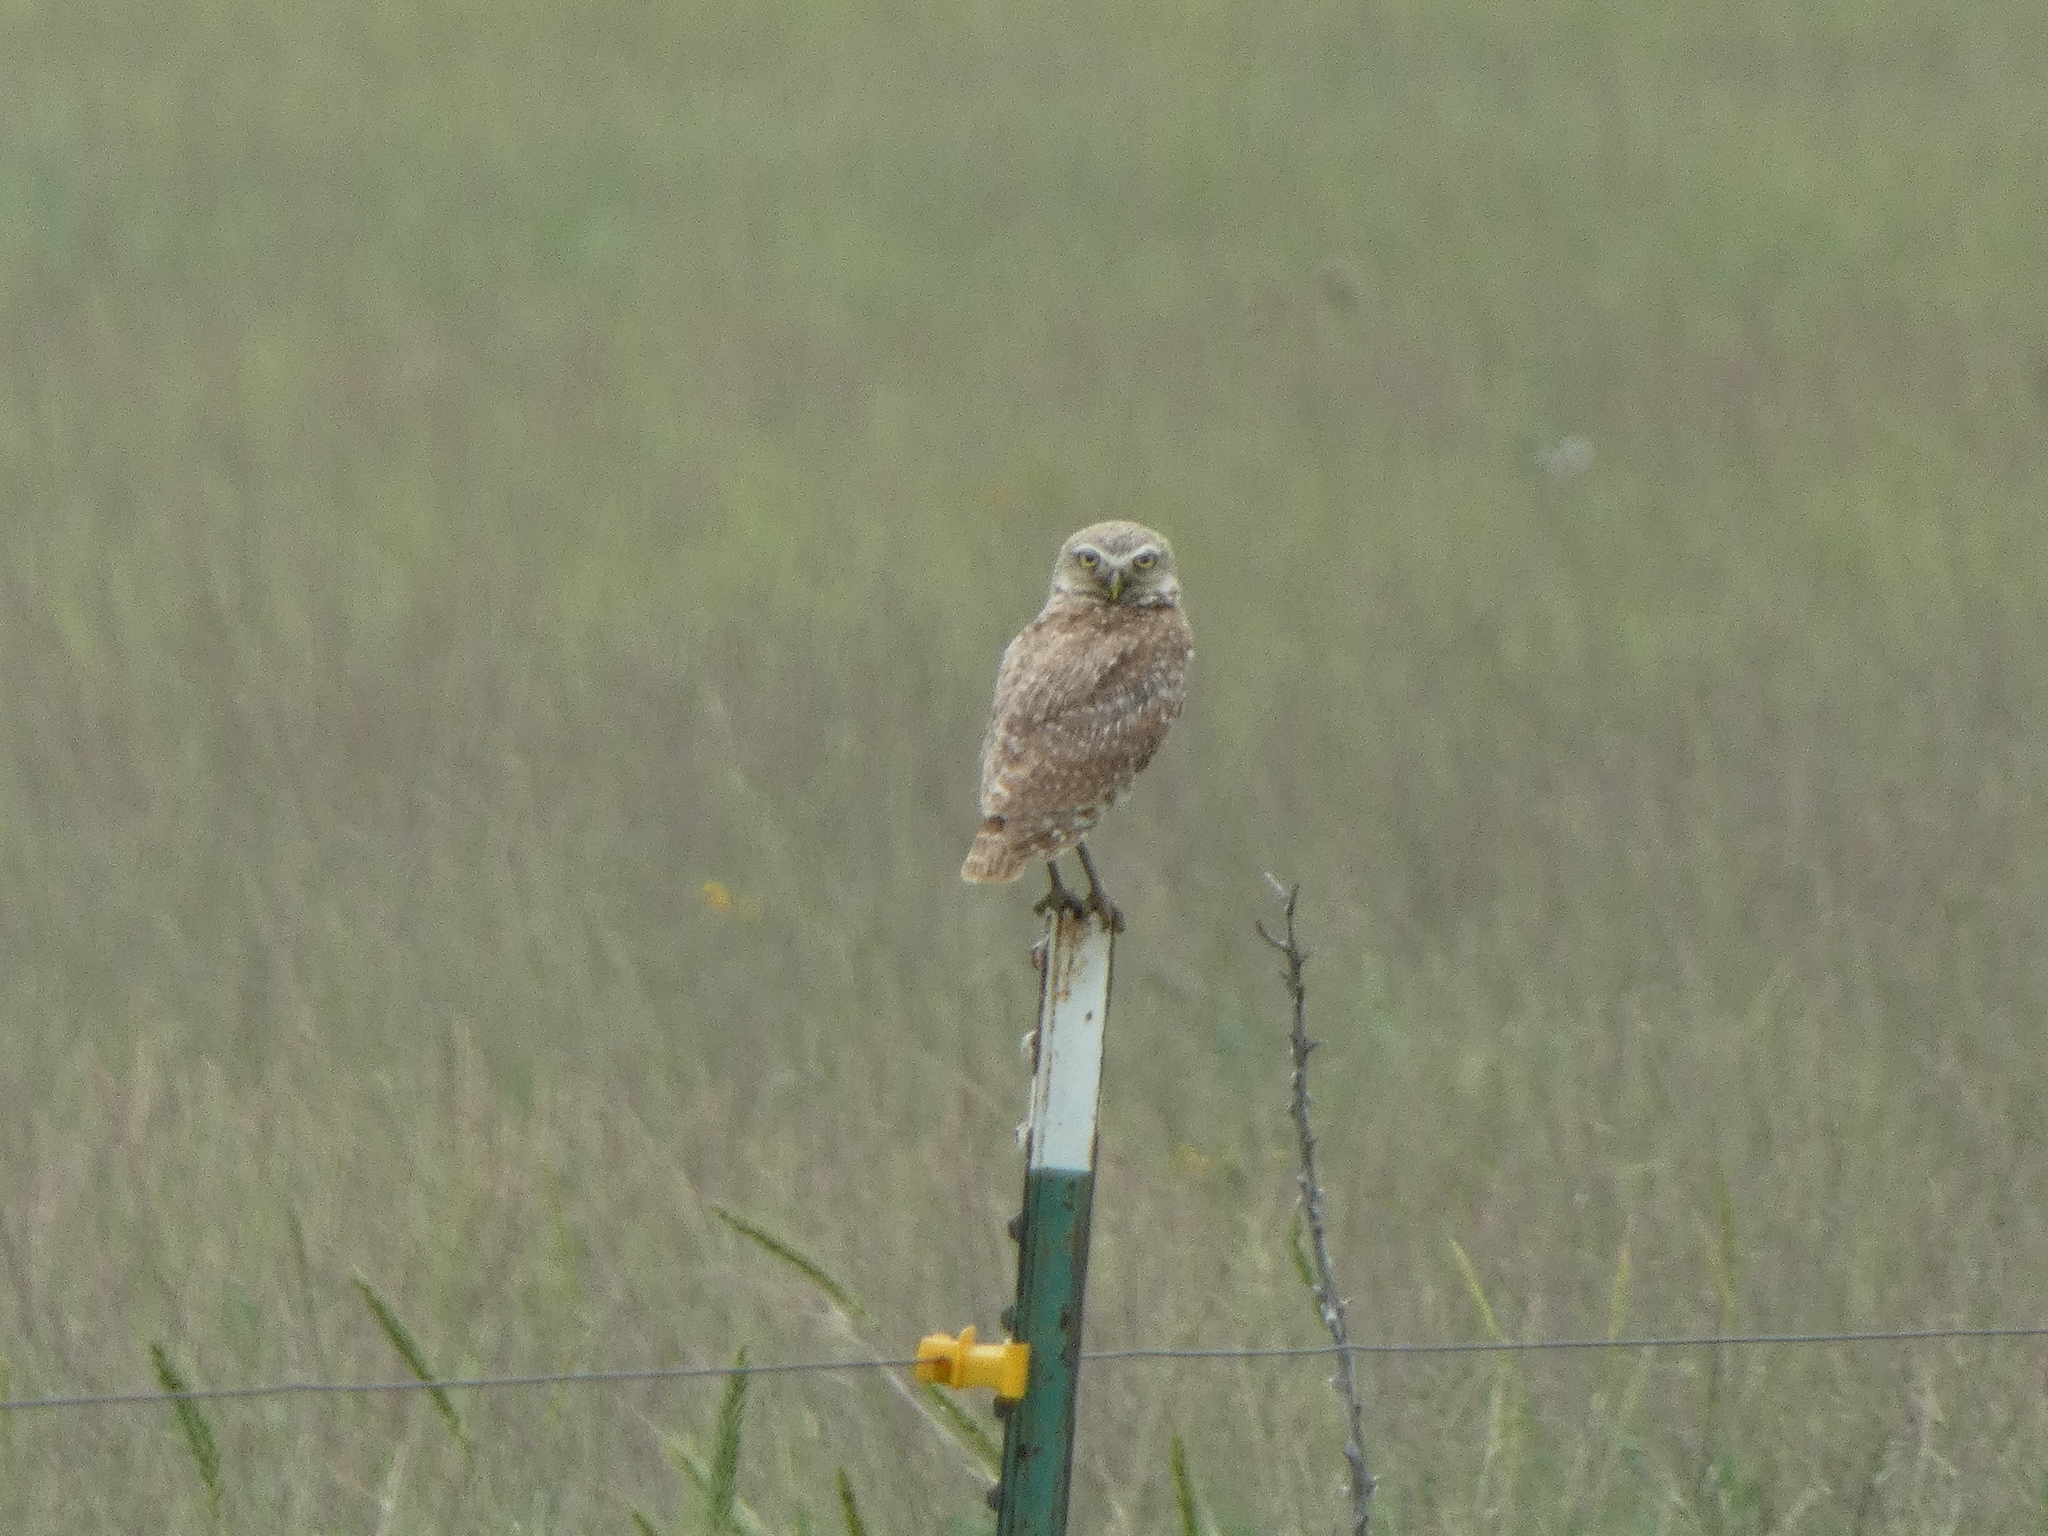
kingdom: Animalia
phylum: Chordata
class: Aves
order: Strigiformes
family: Strigidae
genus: Athene
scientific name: Athene cunicularia
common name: Burrowing owl
